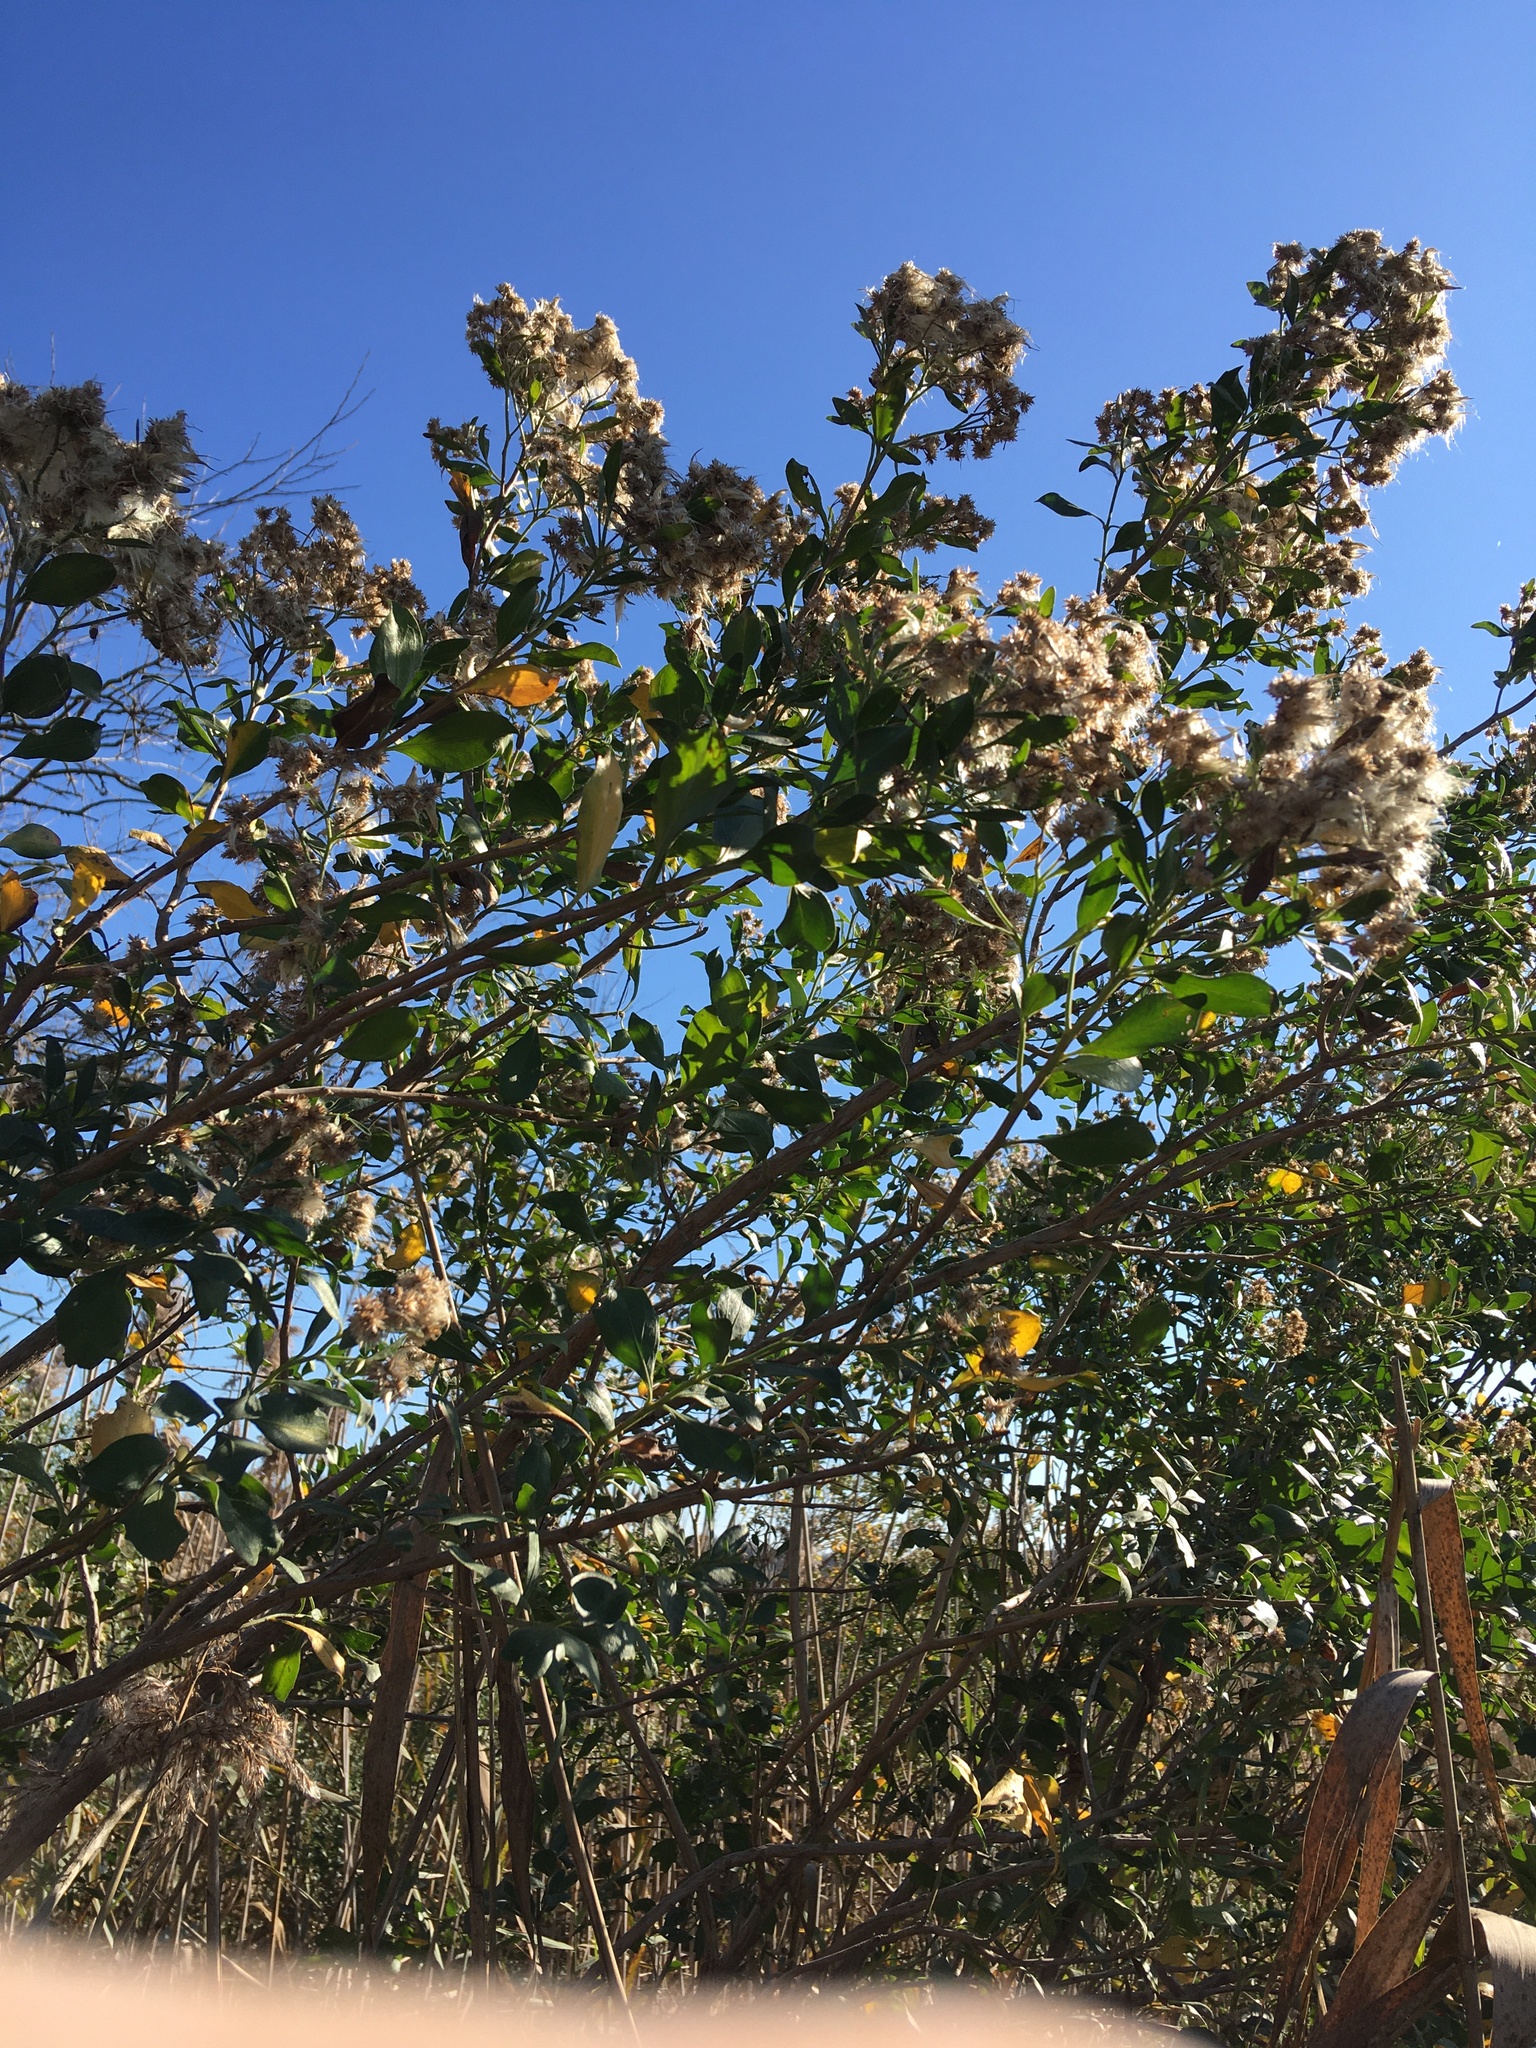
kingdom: Plantae
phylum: Tracheophyta
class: Magnoliopsida
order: Asterales
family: Asteraceae
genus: Baccharis
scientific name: Baccharis halimifolia
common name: Eastern baccharis
